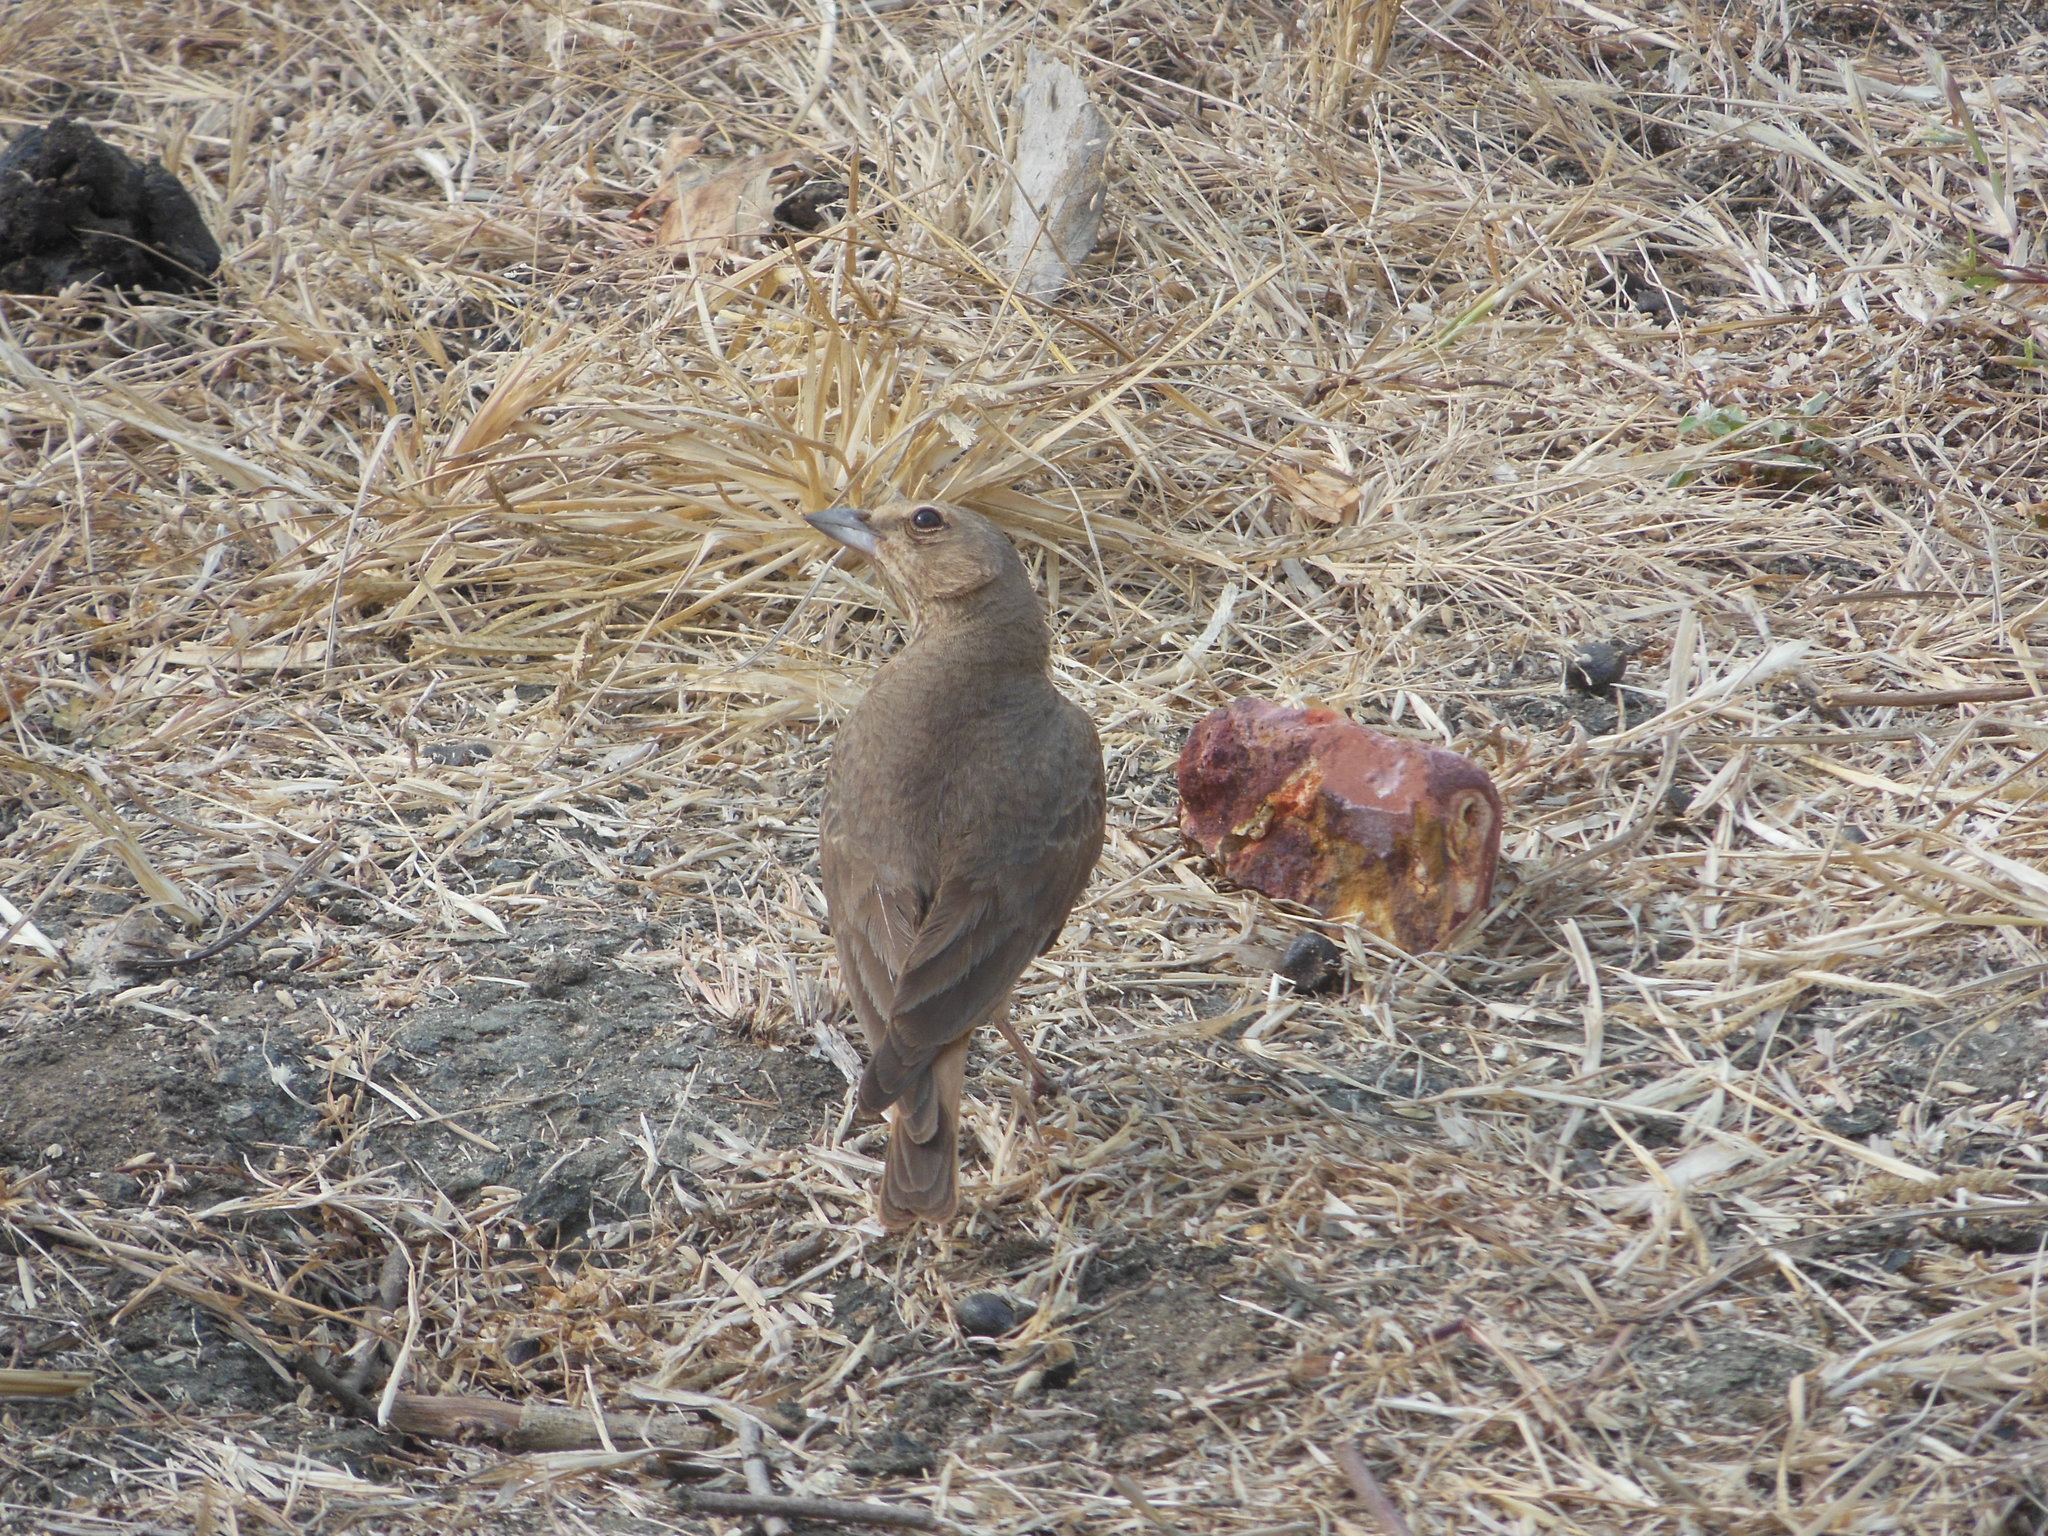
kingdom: Animalia
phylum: Chordata
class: Aves
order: Passeriformes
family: Alaudidae
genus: Ammomanes
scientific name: Ammomanes phoenicura
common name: Rufous-tailed lark
